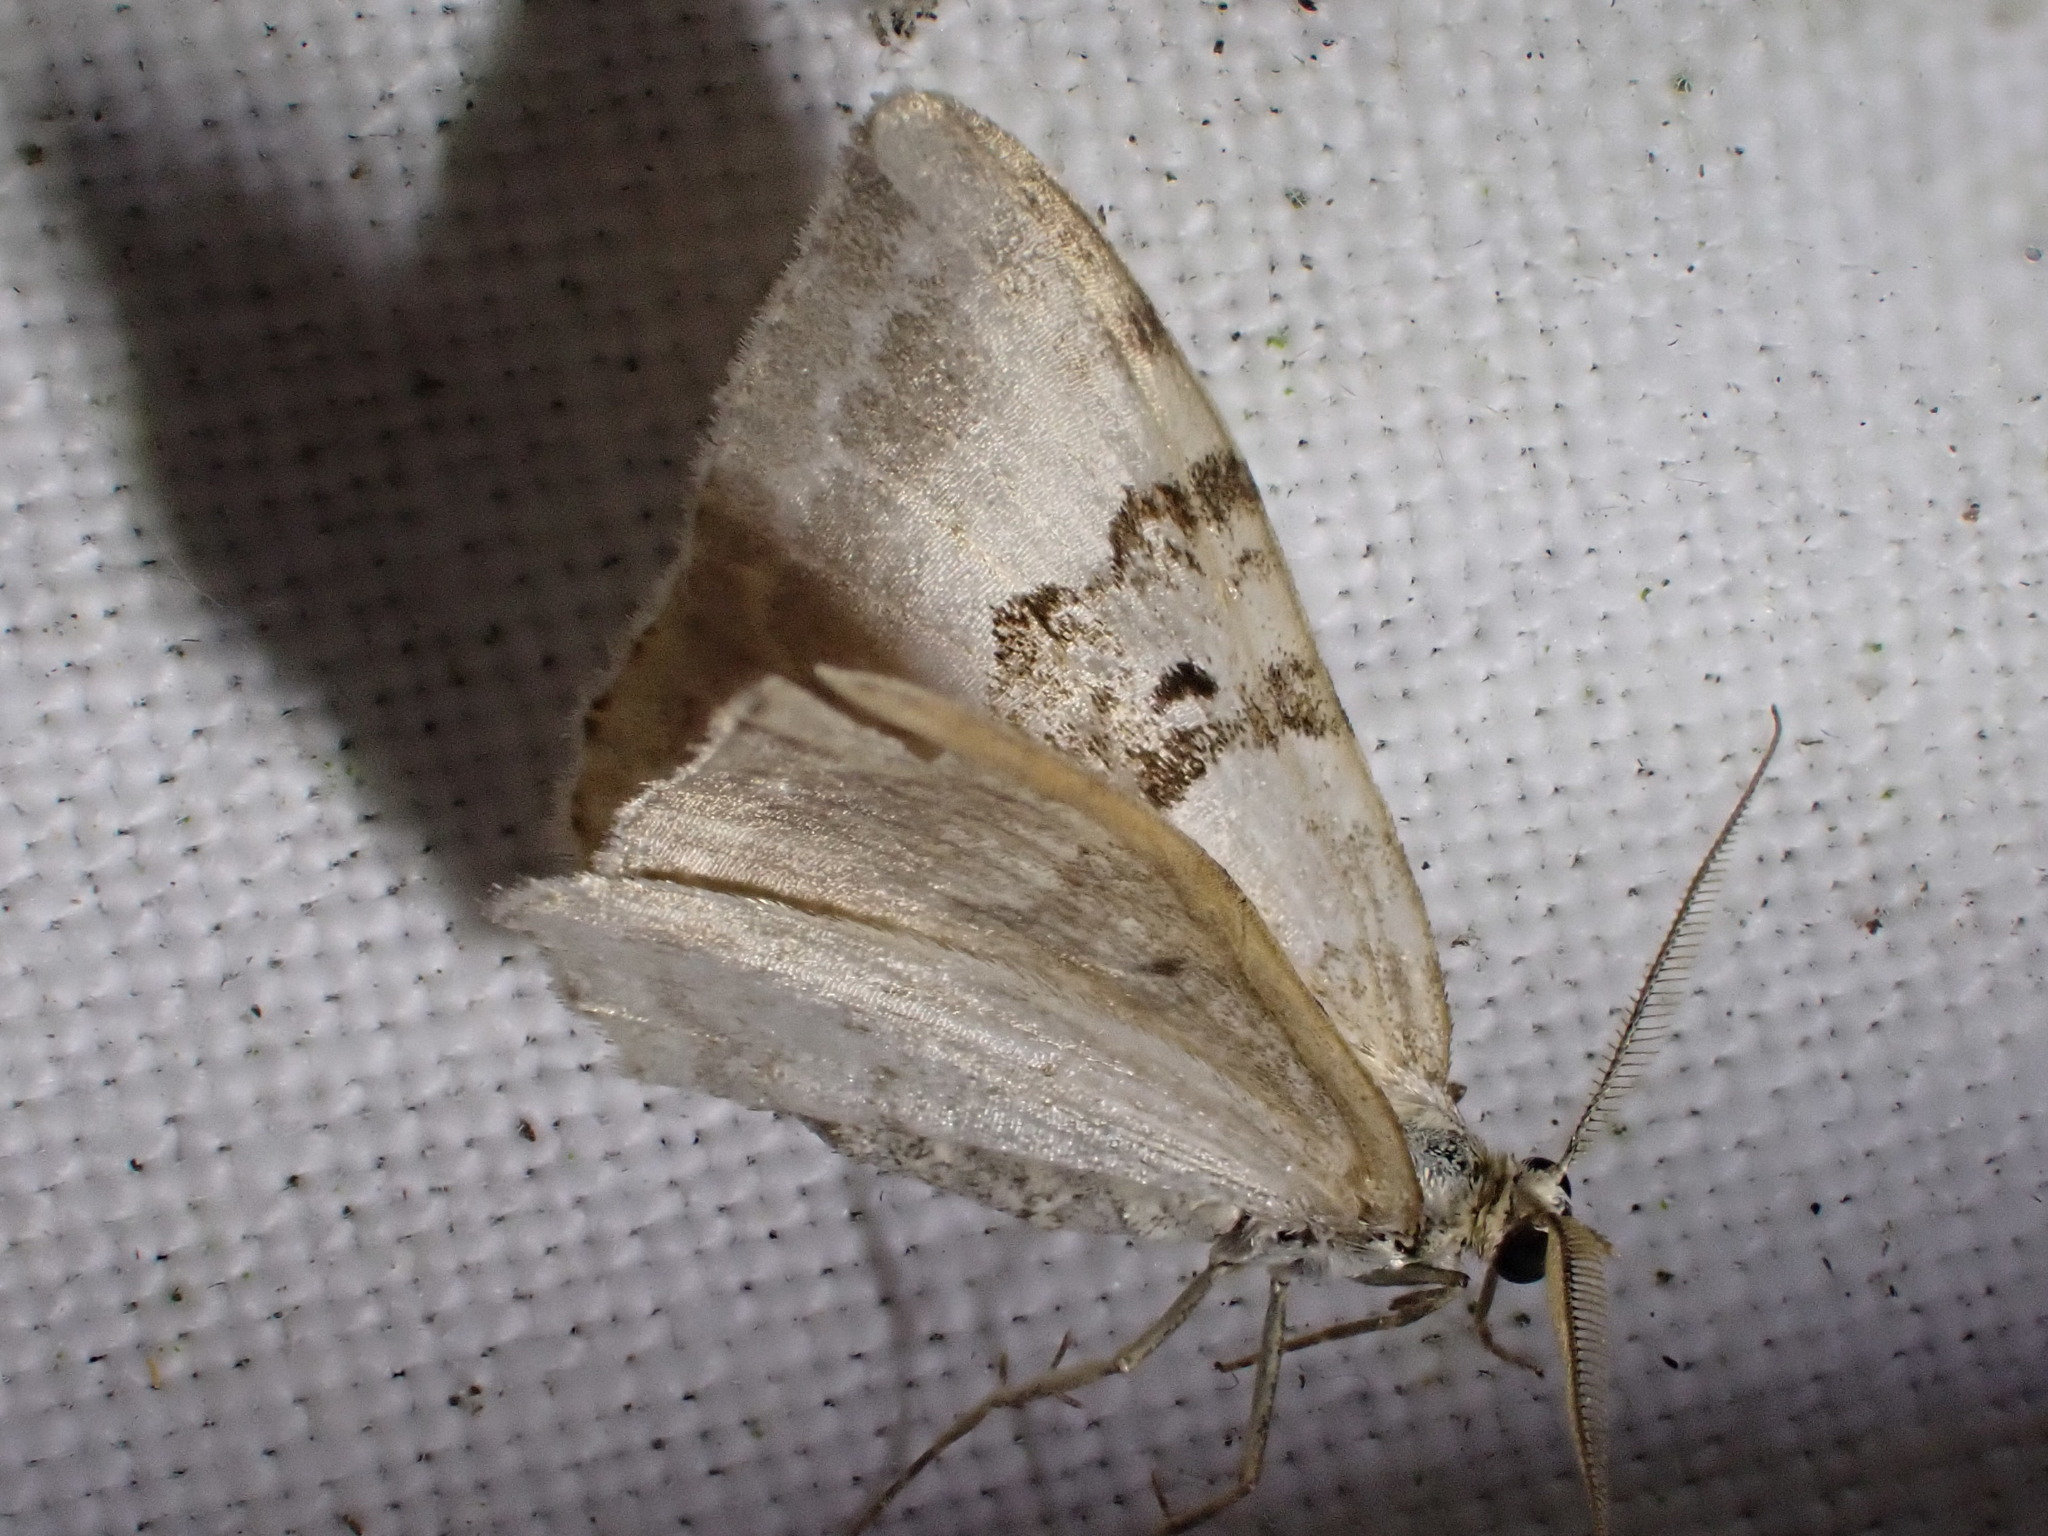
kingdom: Animalia
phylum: Arthropoda
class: Insecta
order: Lepidoptera
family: Geometridae
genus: Xanthorhoe
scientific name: Xanthorhoe montanata
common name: Silver-ground carpet
